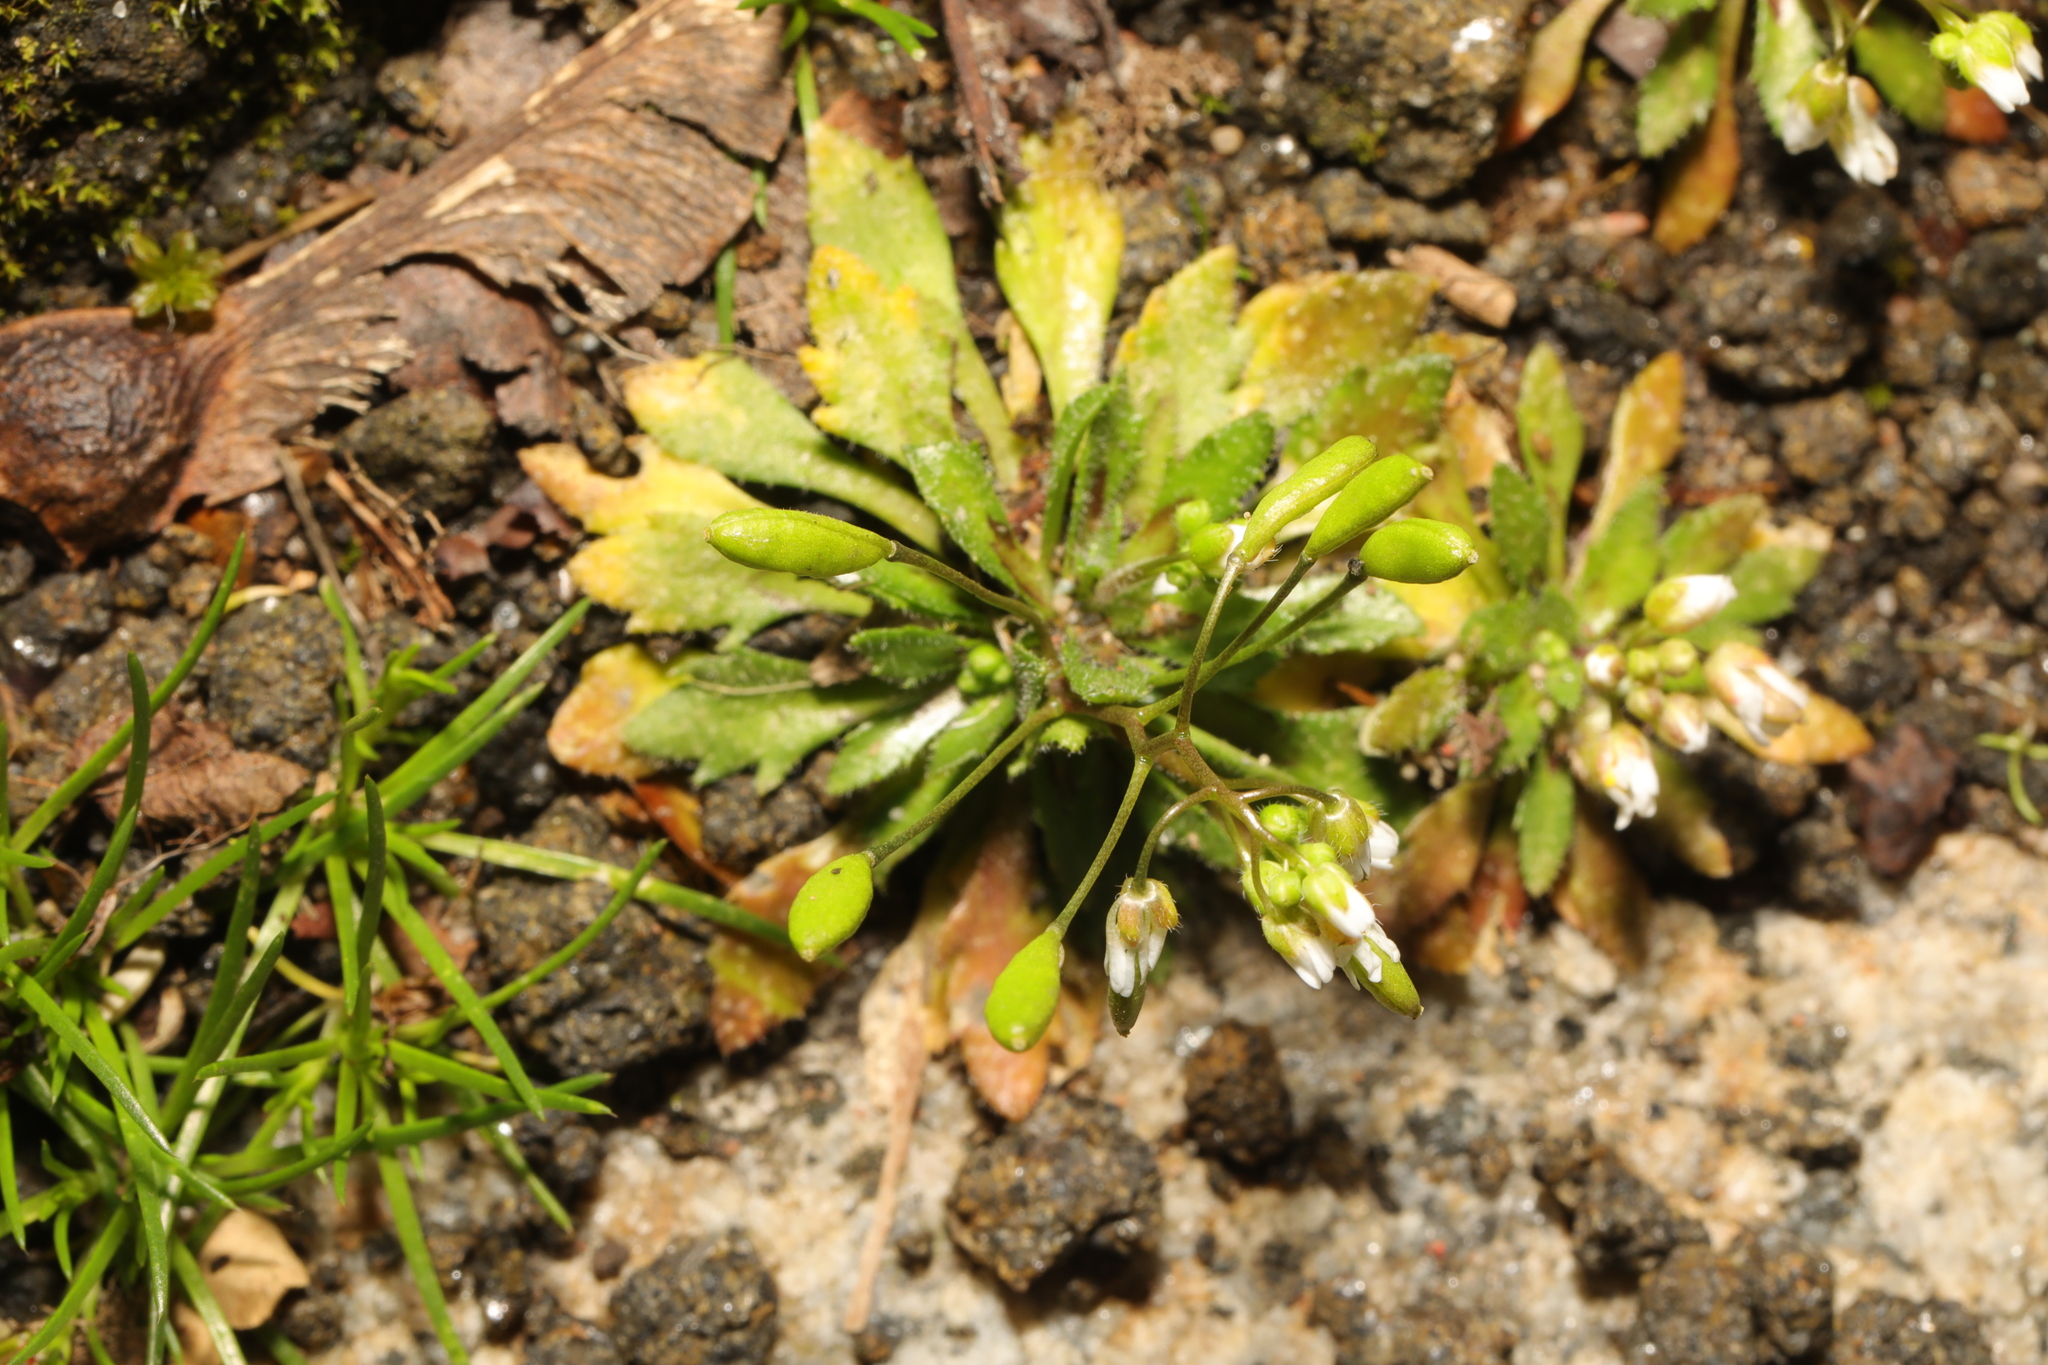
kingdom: Plantae
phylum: Tracheophyta
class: Magnoliopsida
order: Brassicales
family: Brassicaceae
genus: Draba
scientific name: Draba verna
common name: Spring draba
